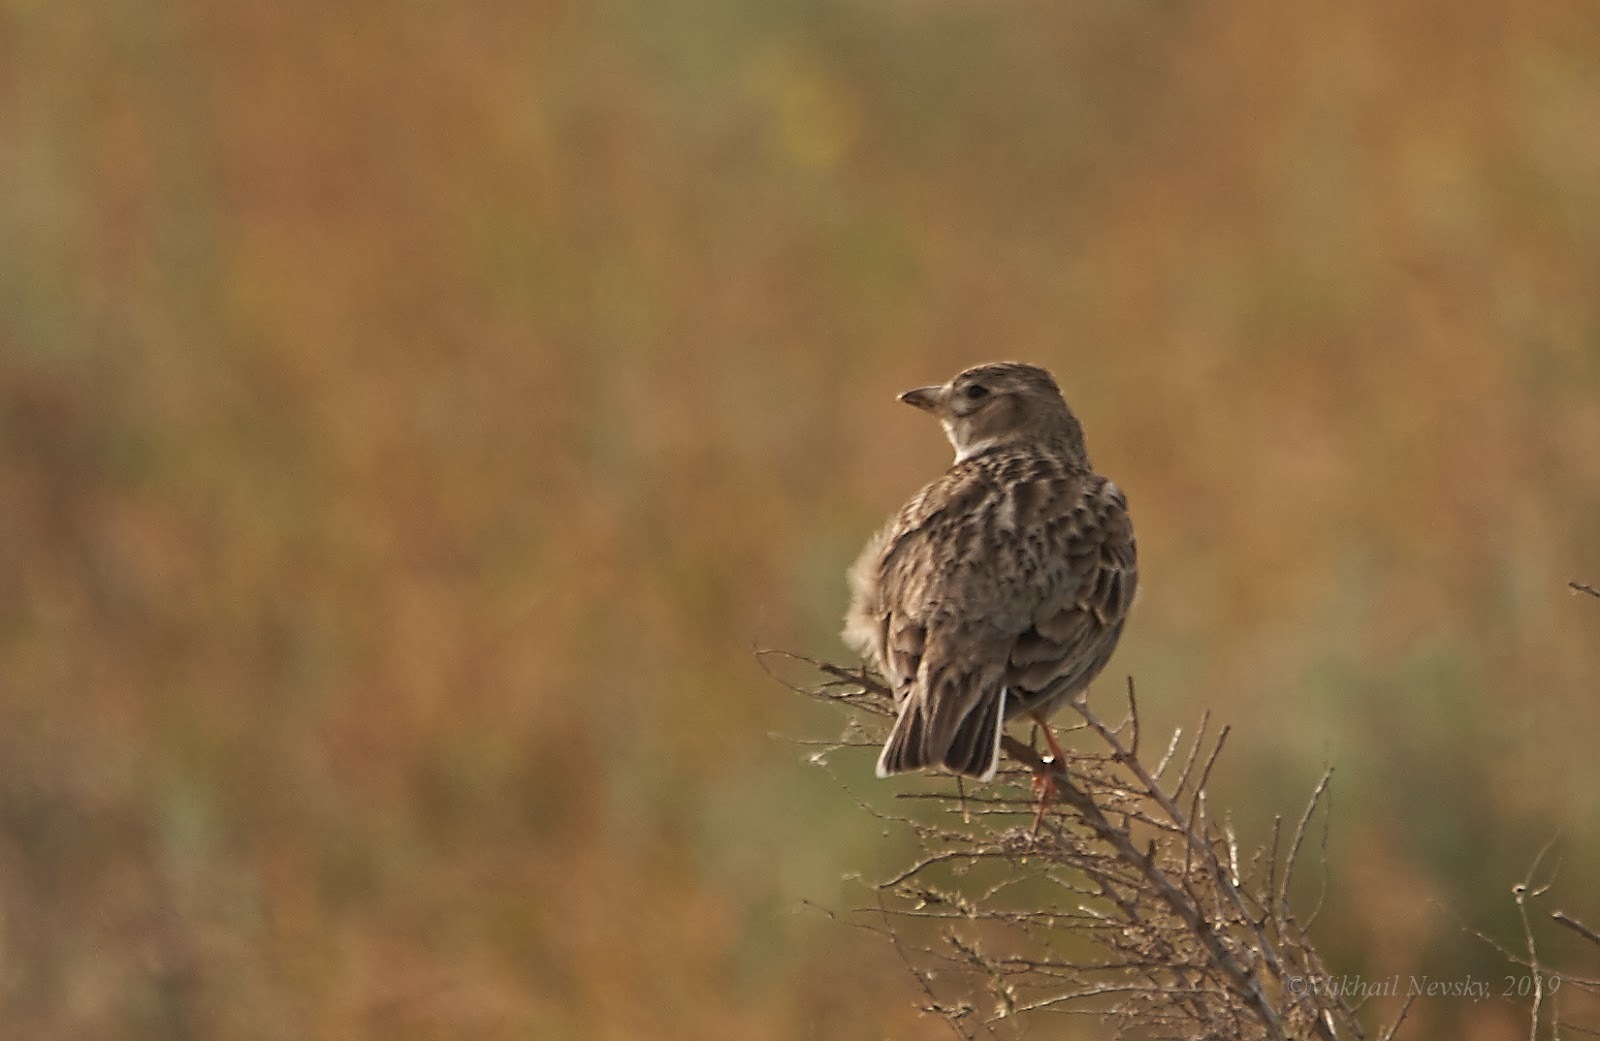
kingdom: Animalia
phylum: Chordata
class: Aves
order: Passeriformes
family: Alaudidae
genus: Melanocorypha
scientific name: Melanocorypha calandra
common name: Calandra lark
